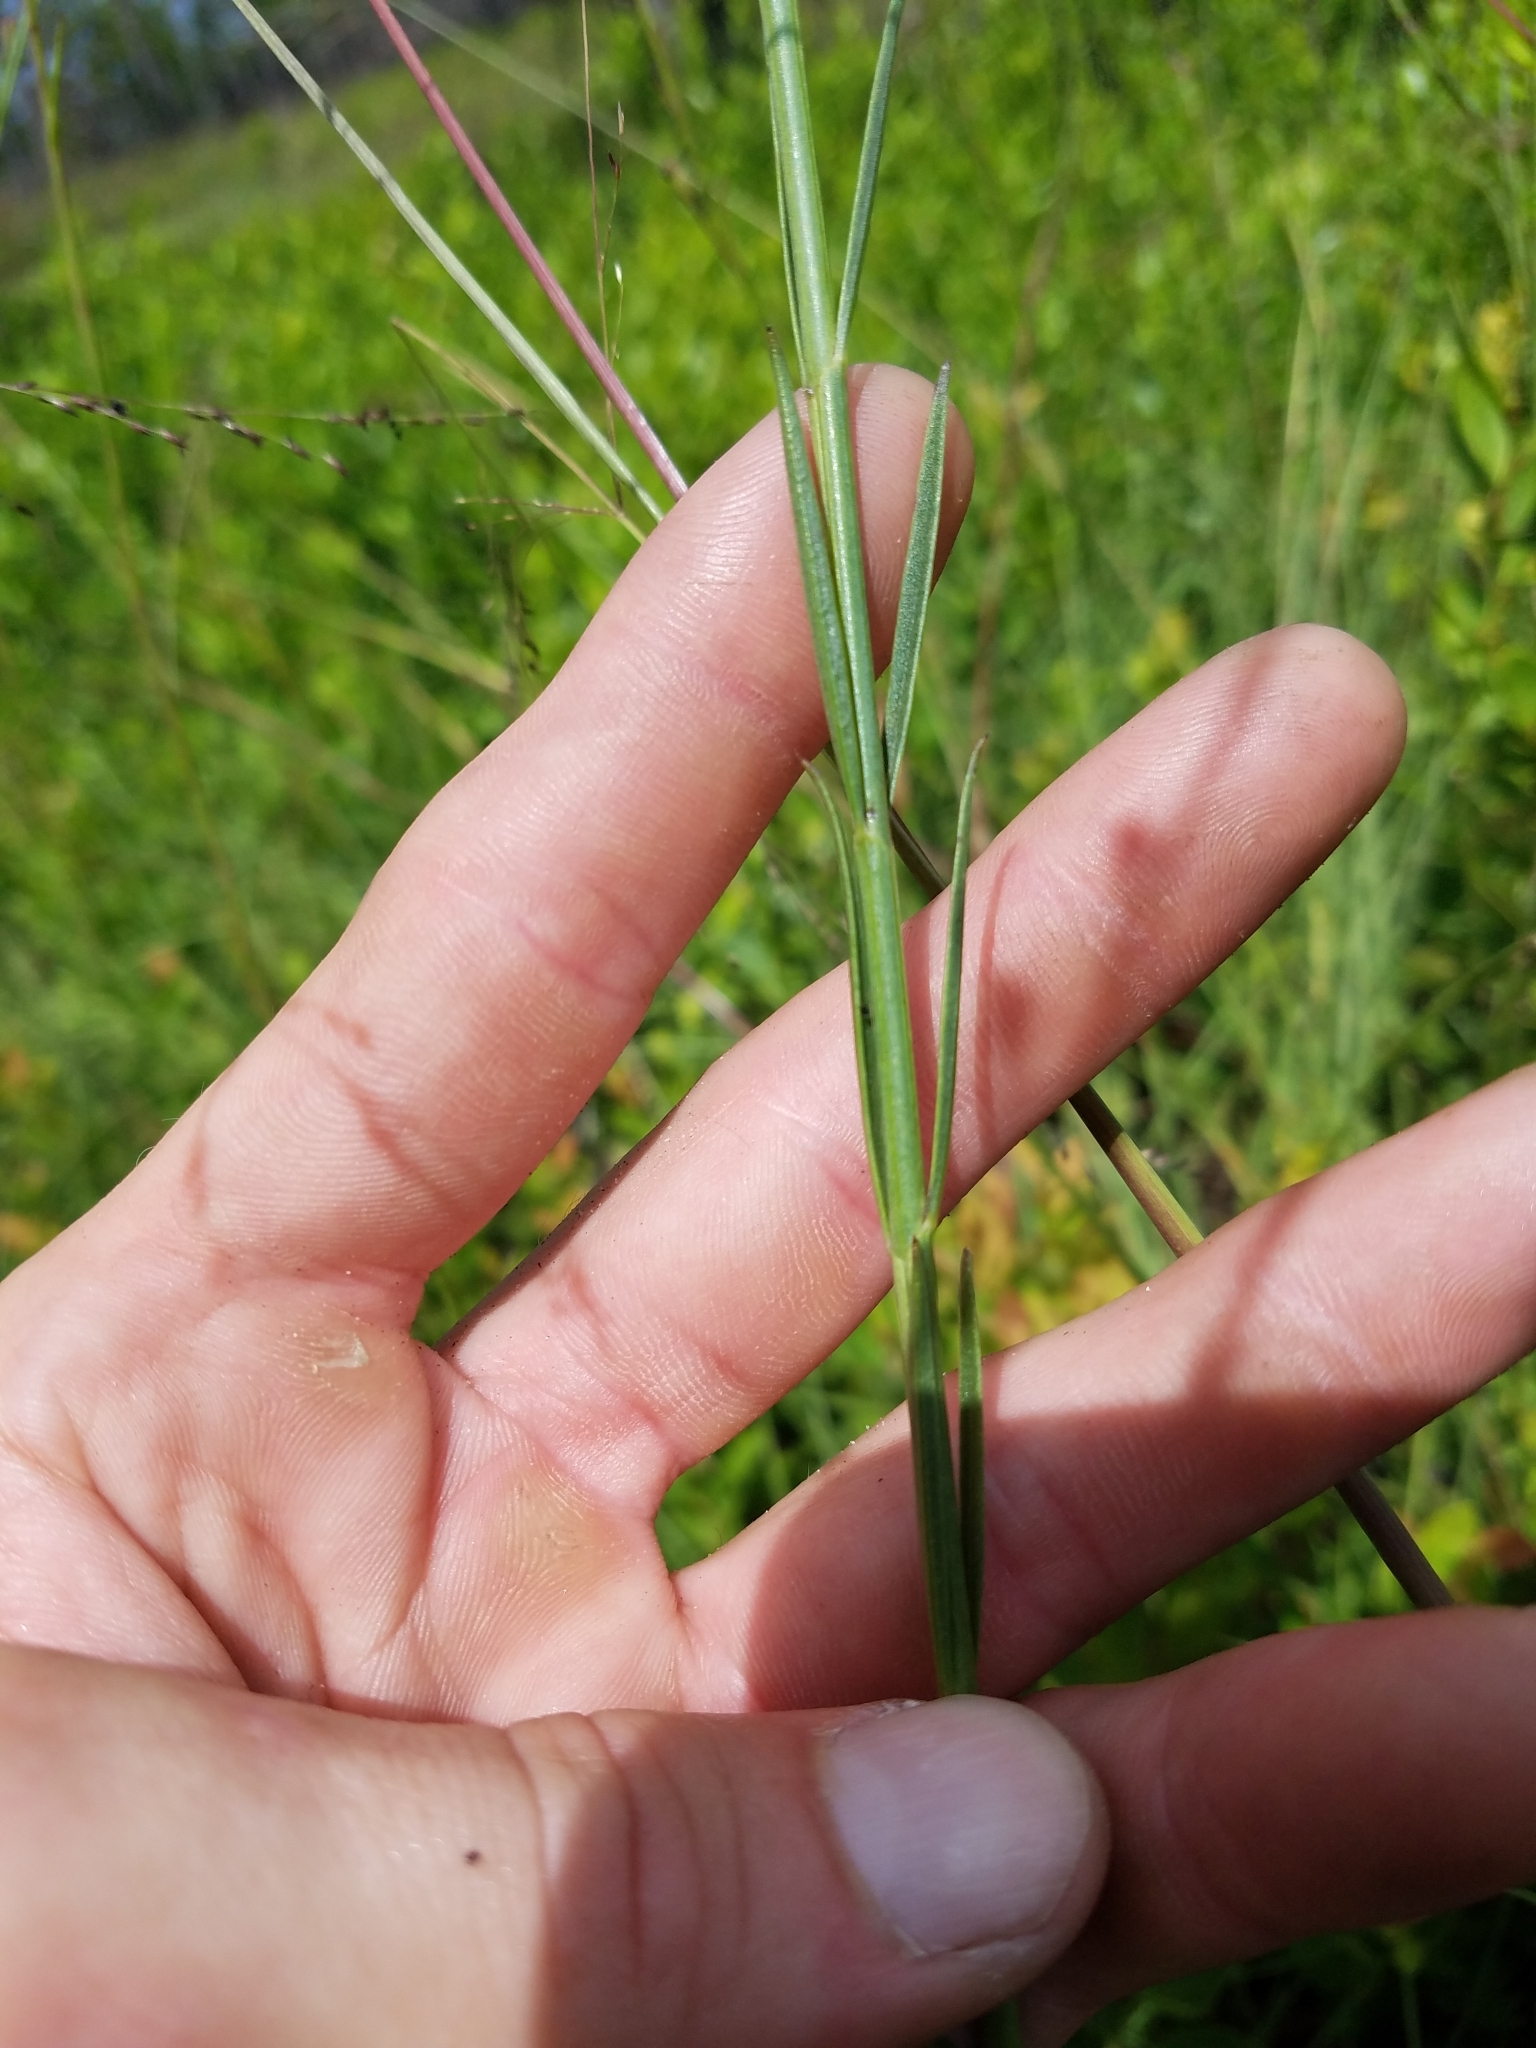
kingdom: Plantae
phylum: Tracheophyta
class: Magnoliopsida
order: Lamiales
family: Orobanchaceae
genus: Agalinis
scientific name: Agalinis linifolia
